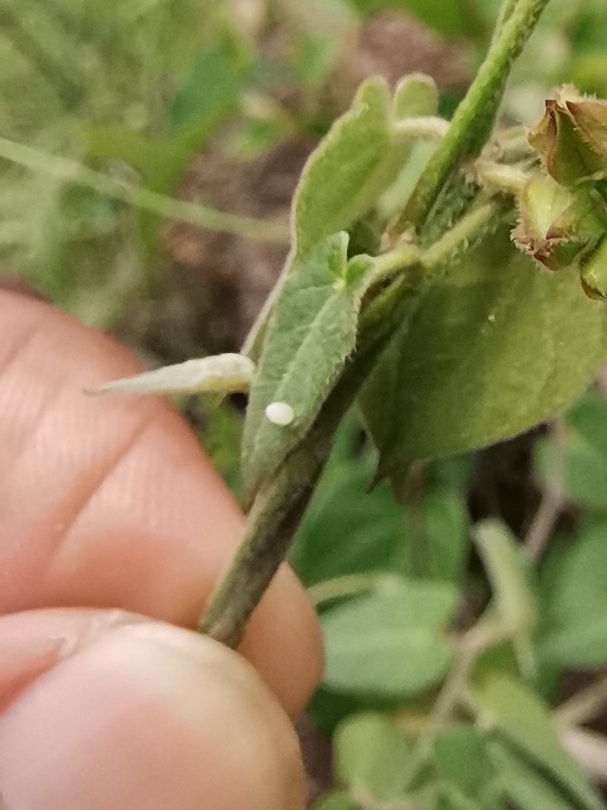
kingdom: Animalia
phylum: Arthropoda
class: Insecta
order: Lepidoptera
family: Nymphalidae
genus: Danaus
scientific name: Danaus gilippus
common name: Queen
